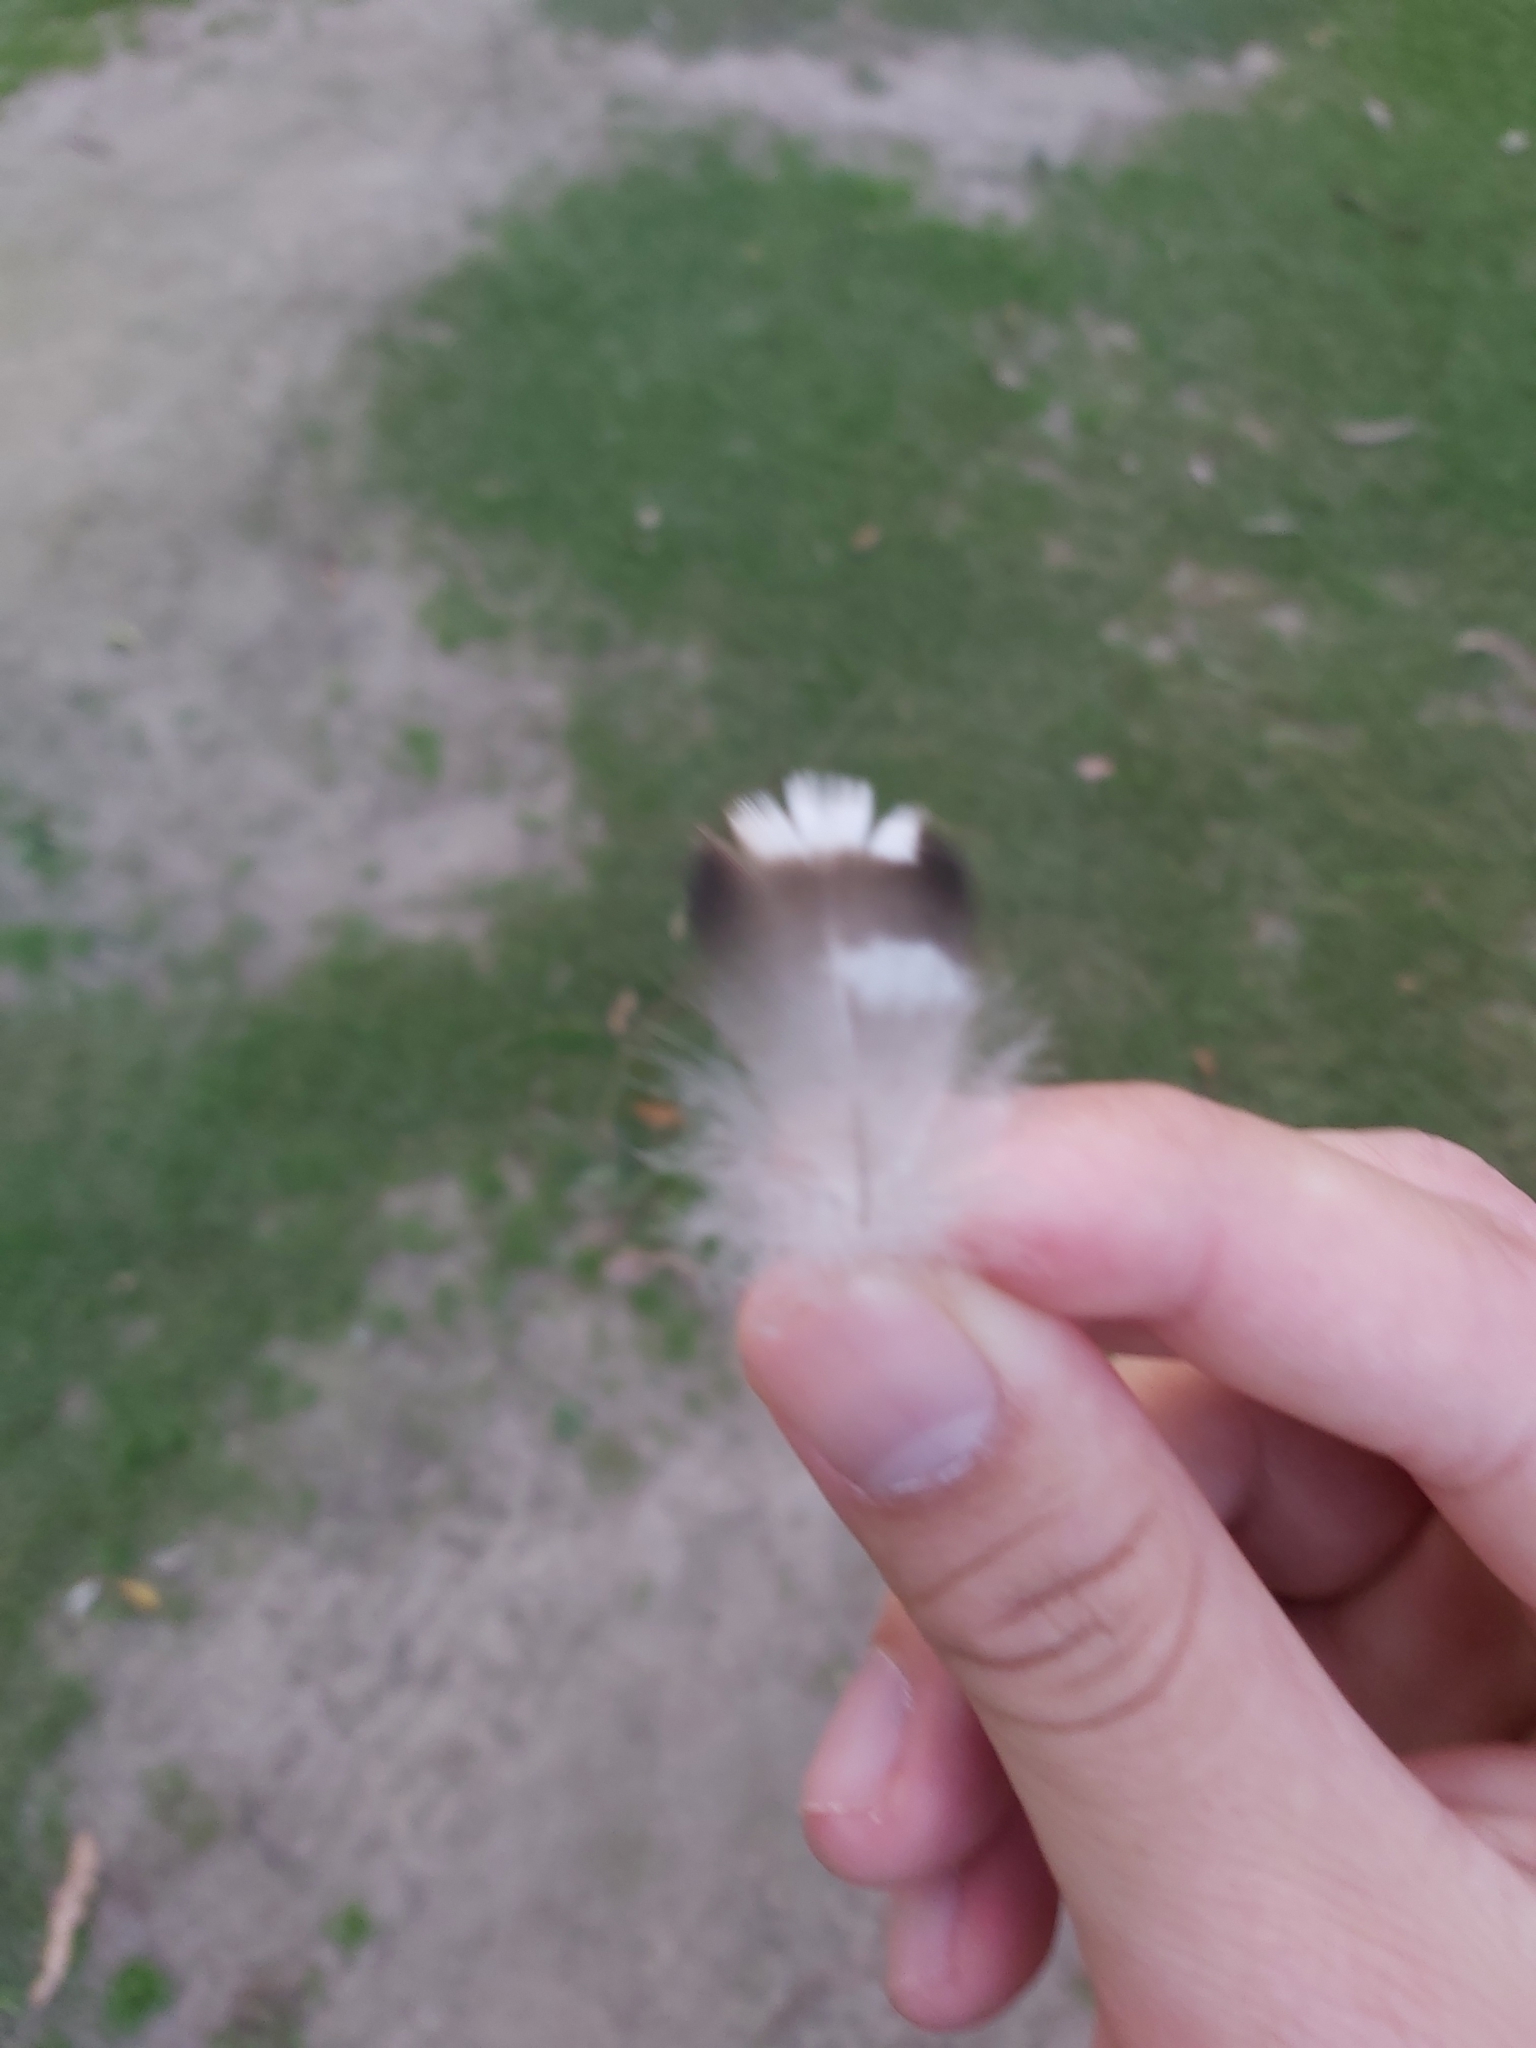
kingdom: Animalia
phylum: Chordata
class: Aves
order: Anseriformes
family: Anatidae
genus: Chenonetta
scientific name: Chenonetta jubata
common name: Maned duck
